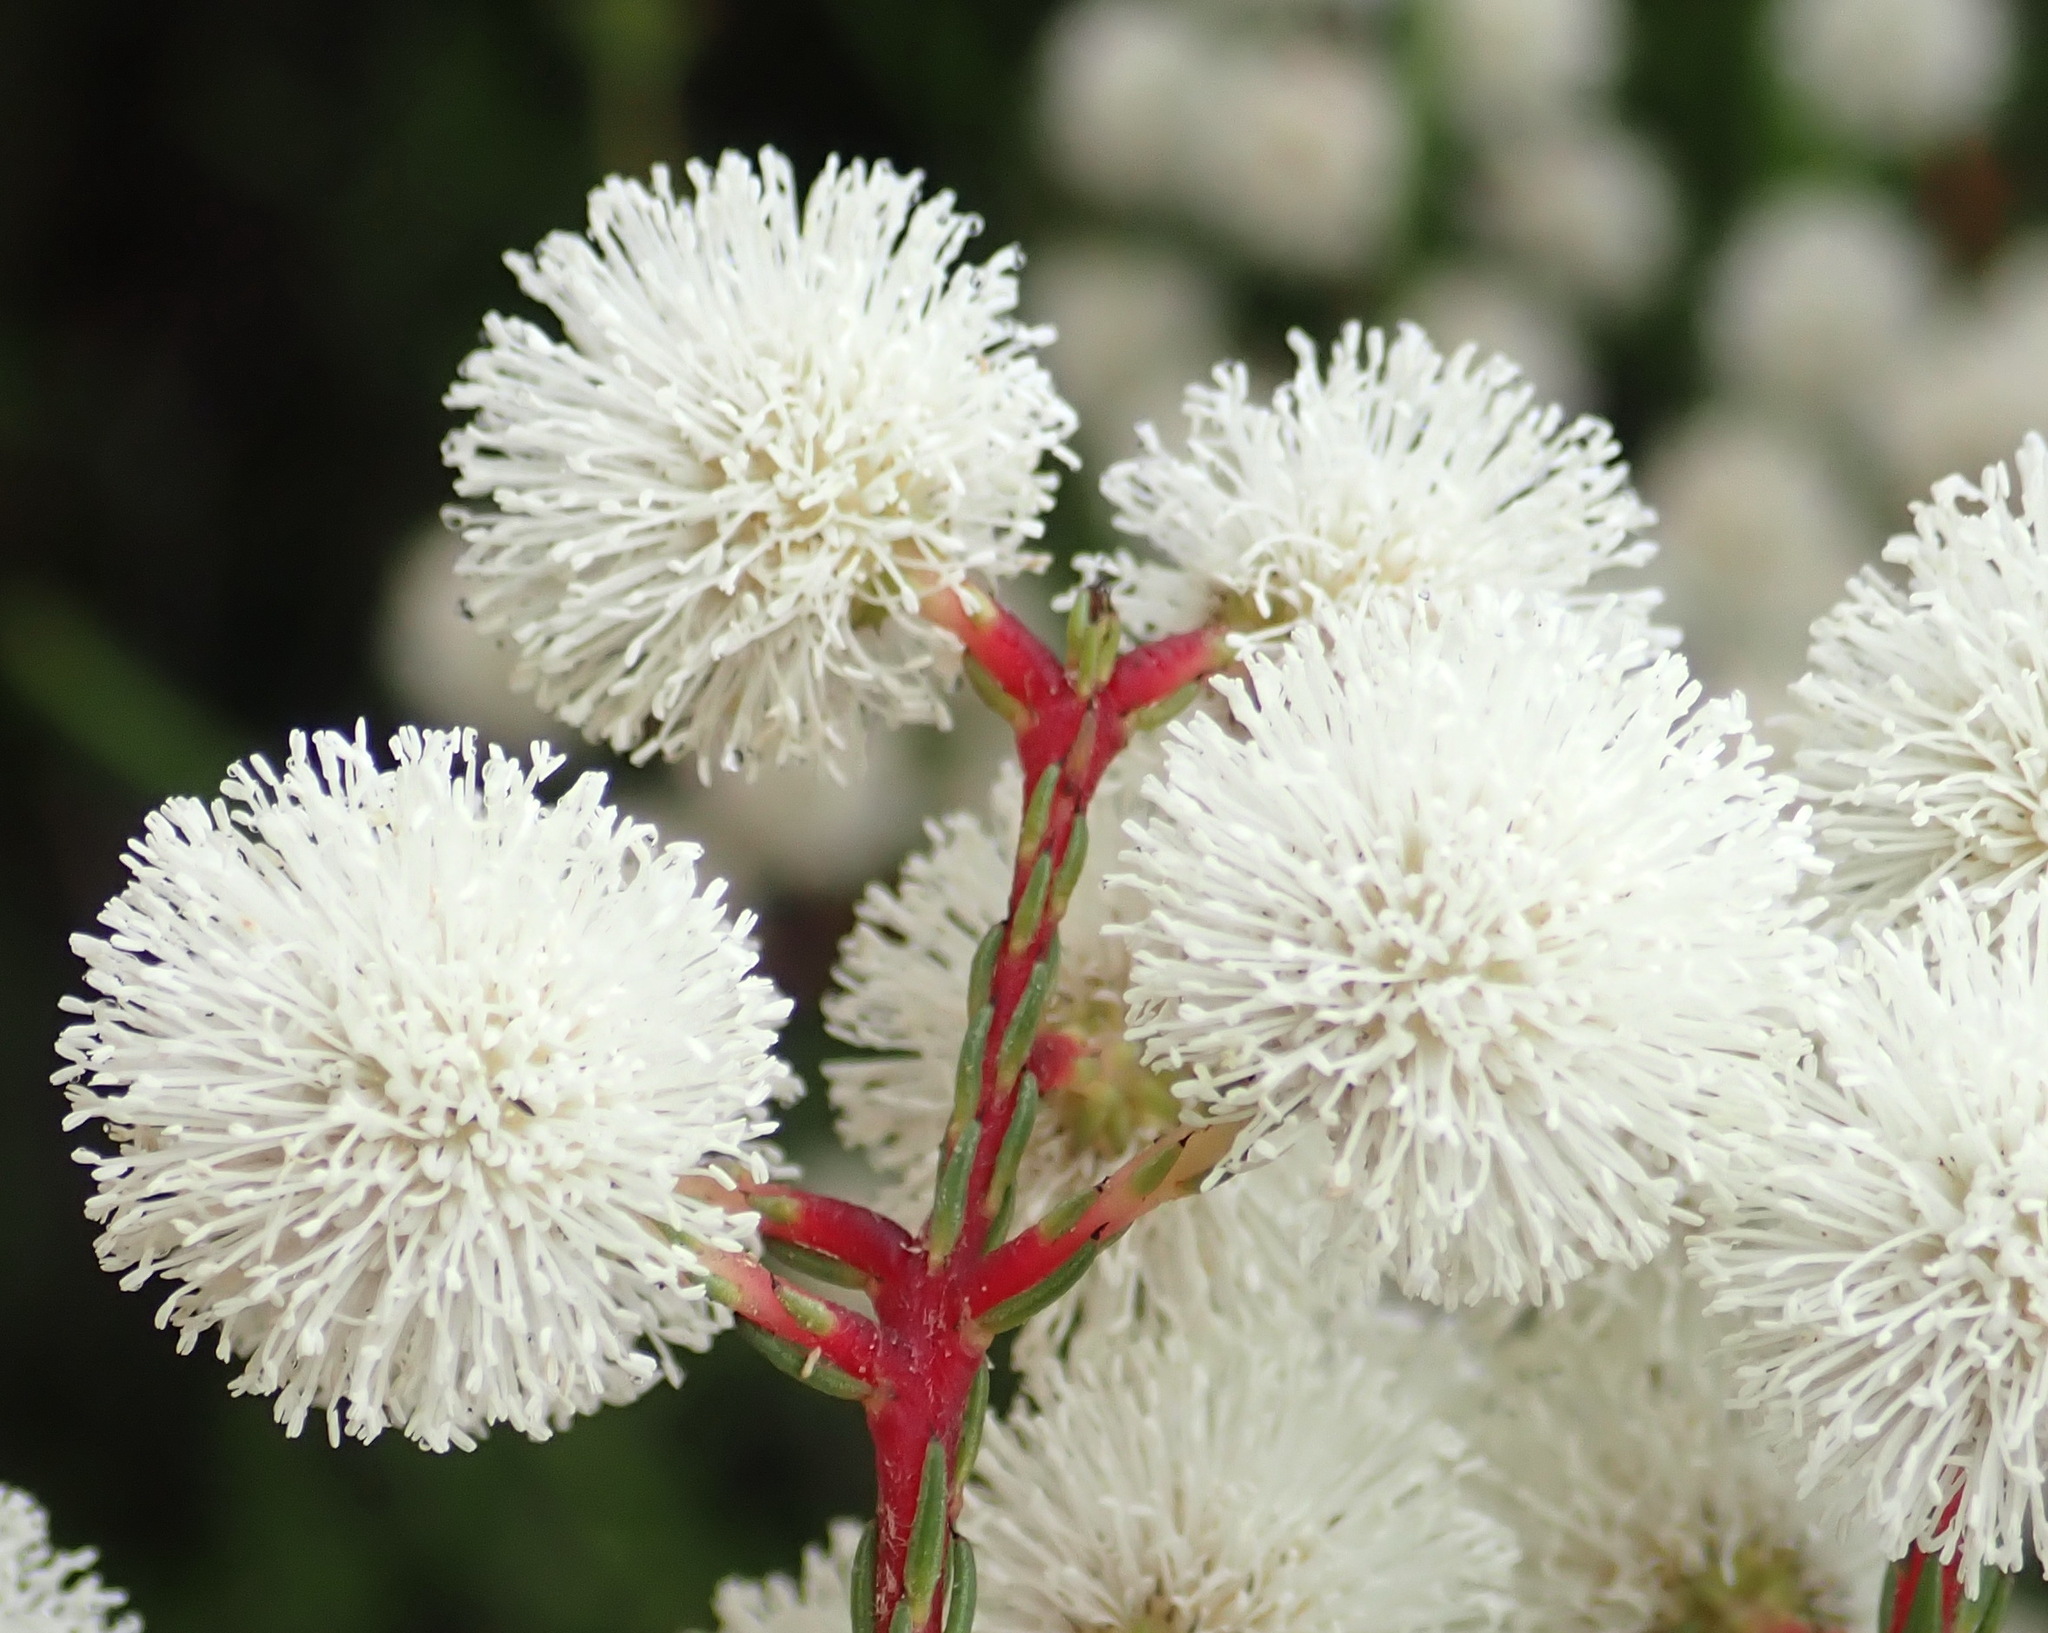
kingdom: Plantae
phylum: Tracheophyta
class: Magnoliopsida
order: Bruniales
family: Bruniaceae
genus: Berzelia
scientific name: Berzelia intermedia
